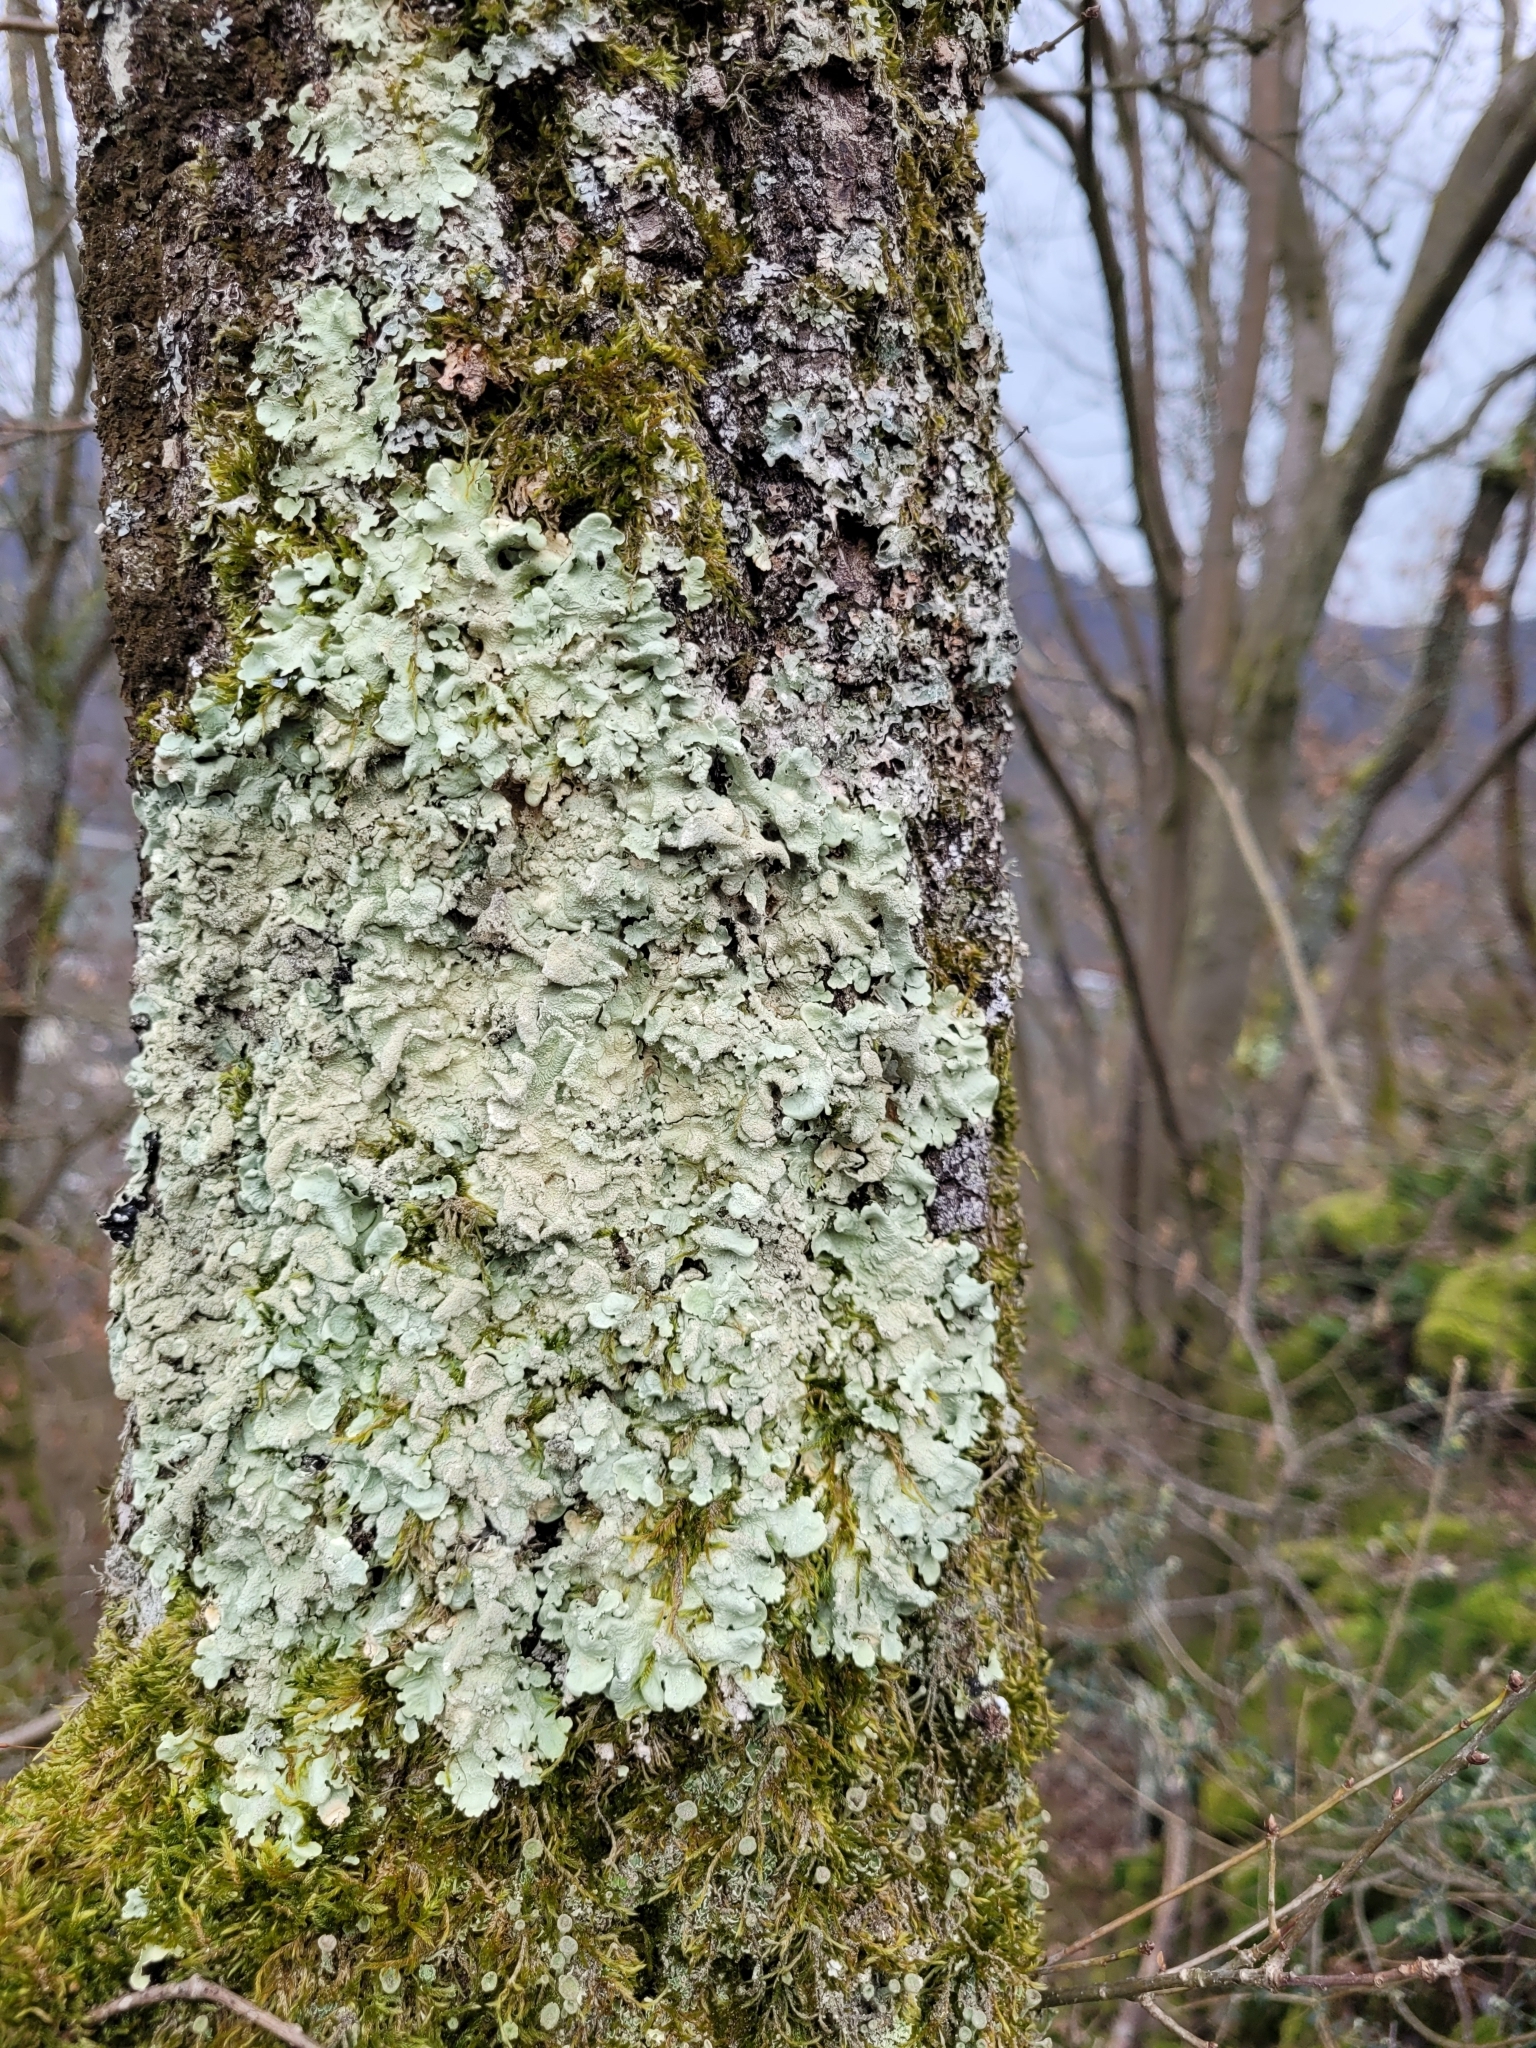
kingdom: Fungi
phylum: Ascomycota
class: Lecanoromycetes
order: Lecanorales
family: Parmeliaceae
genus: Flavoparmelia
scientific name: Flavoparmelia caperata
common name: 40-mile per hour lichen
